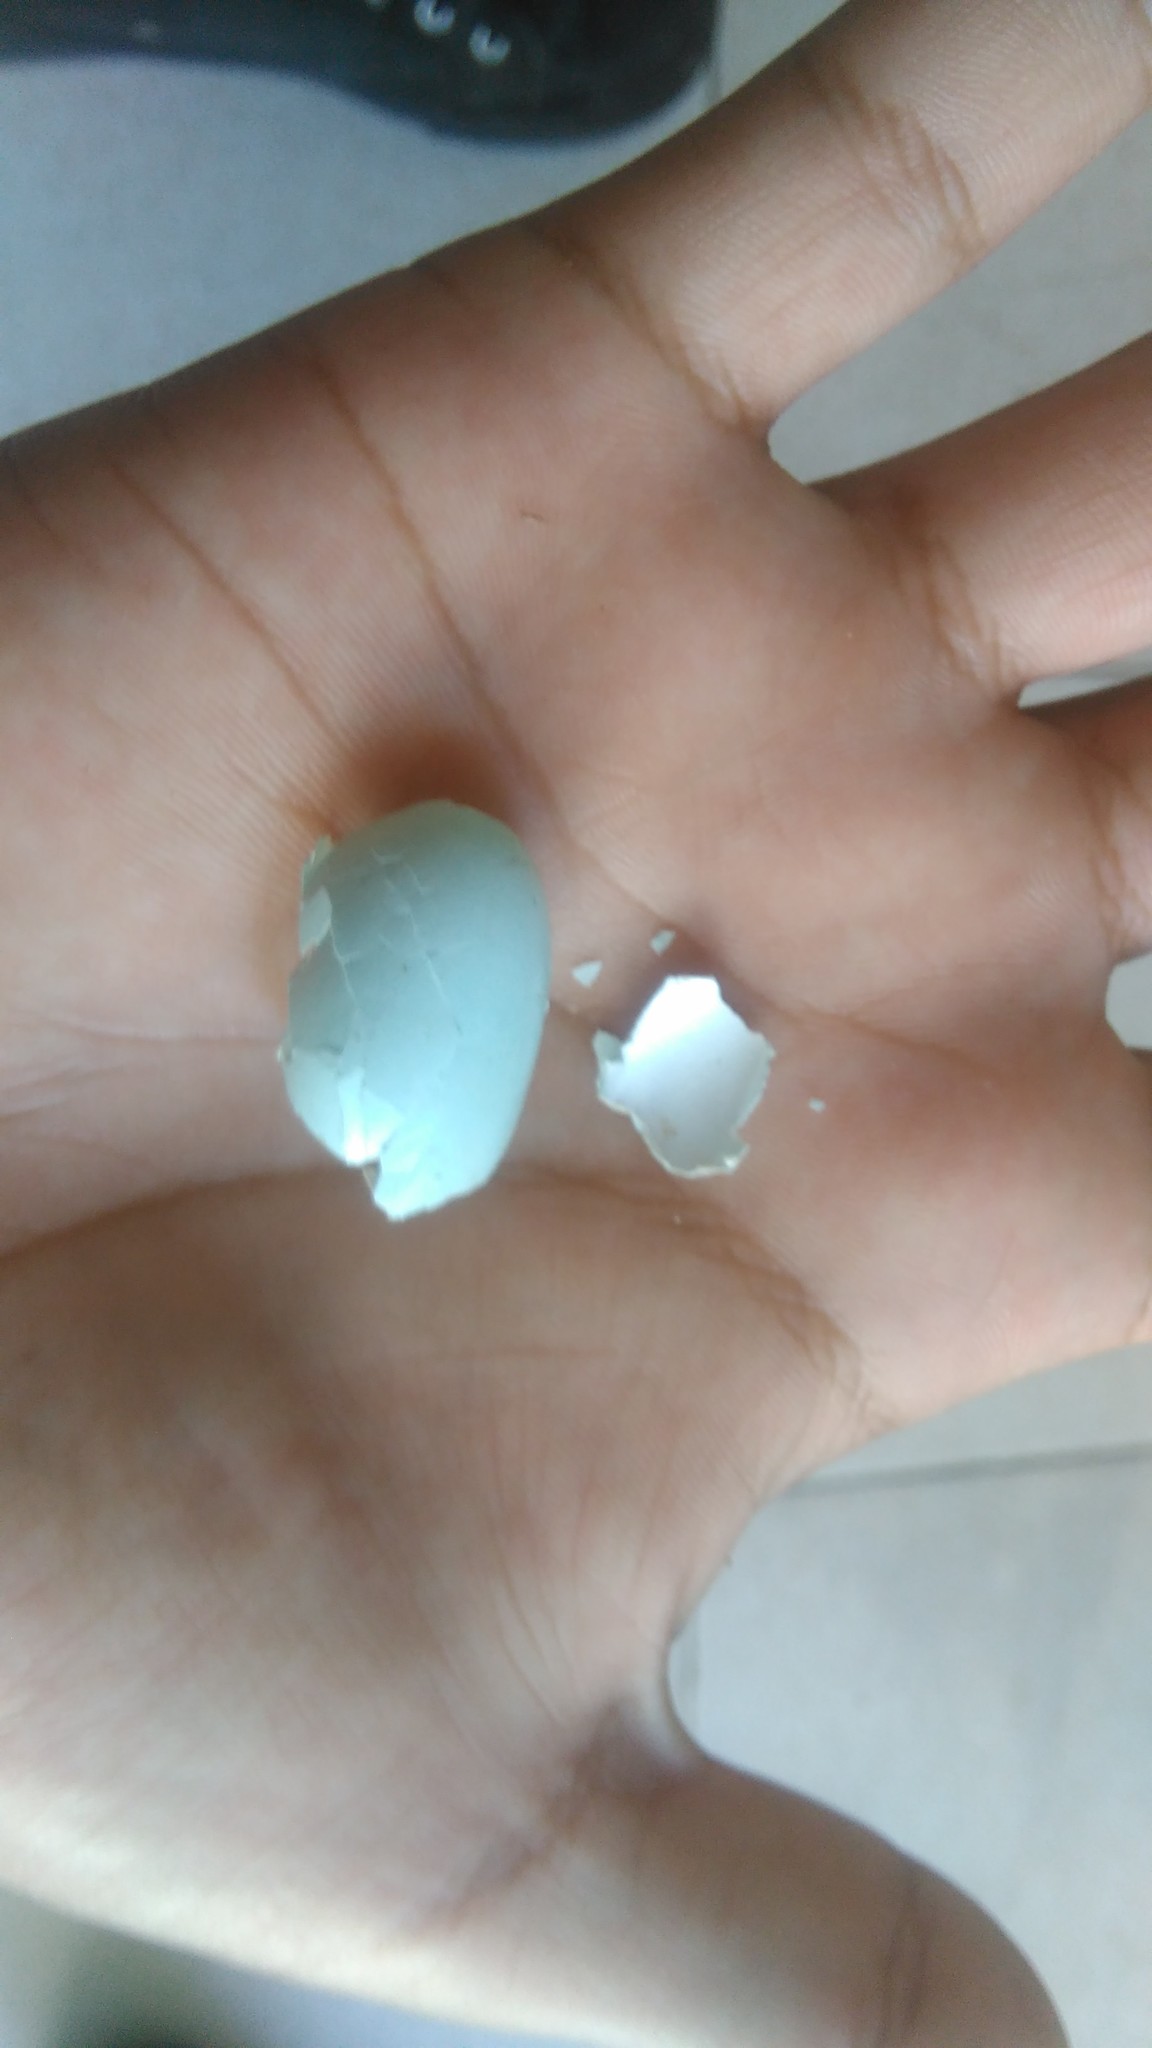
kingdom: Animalia
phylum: Chordata
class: Aves
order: Passeriformes
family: Sturnidae
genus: Sturnus
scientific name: Sturnus vulgaris
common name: Common starling
